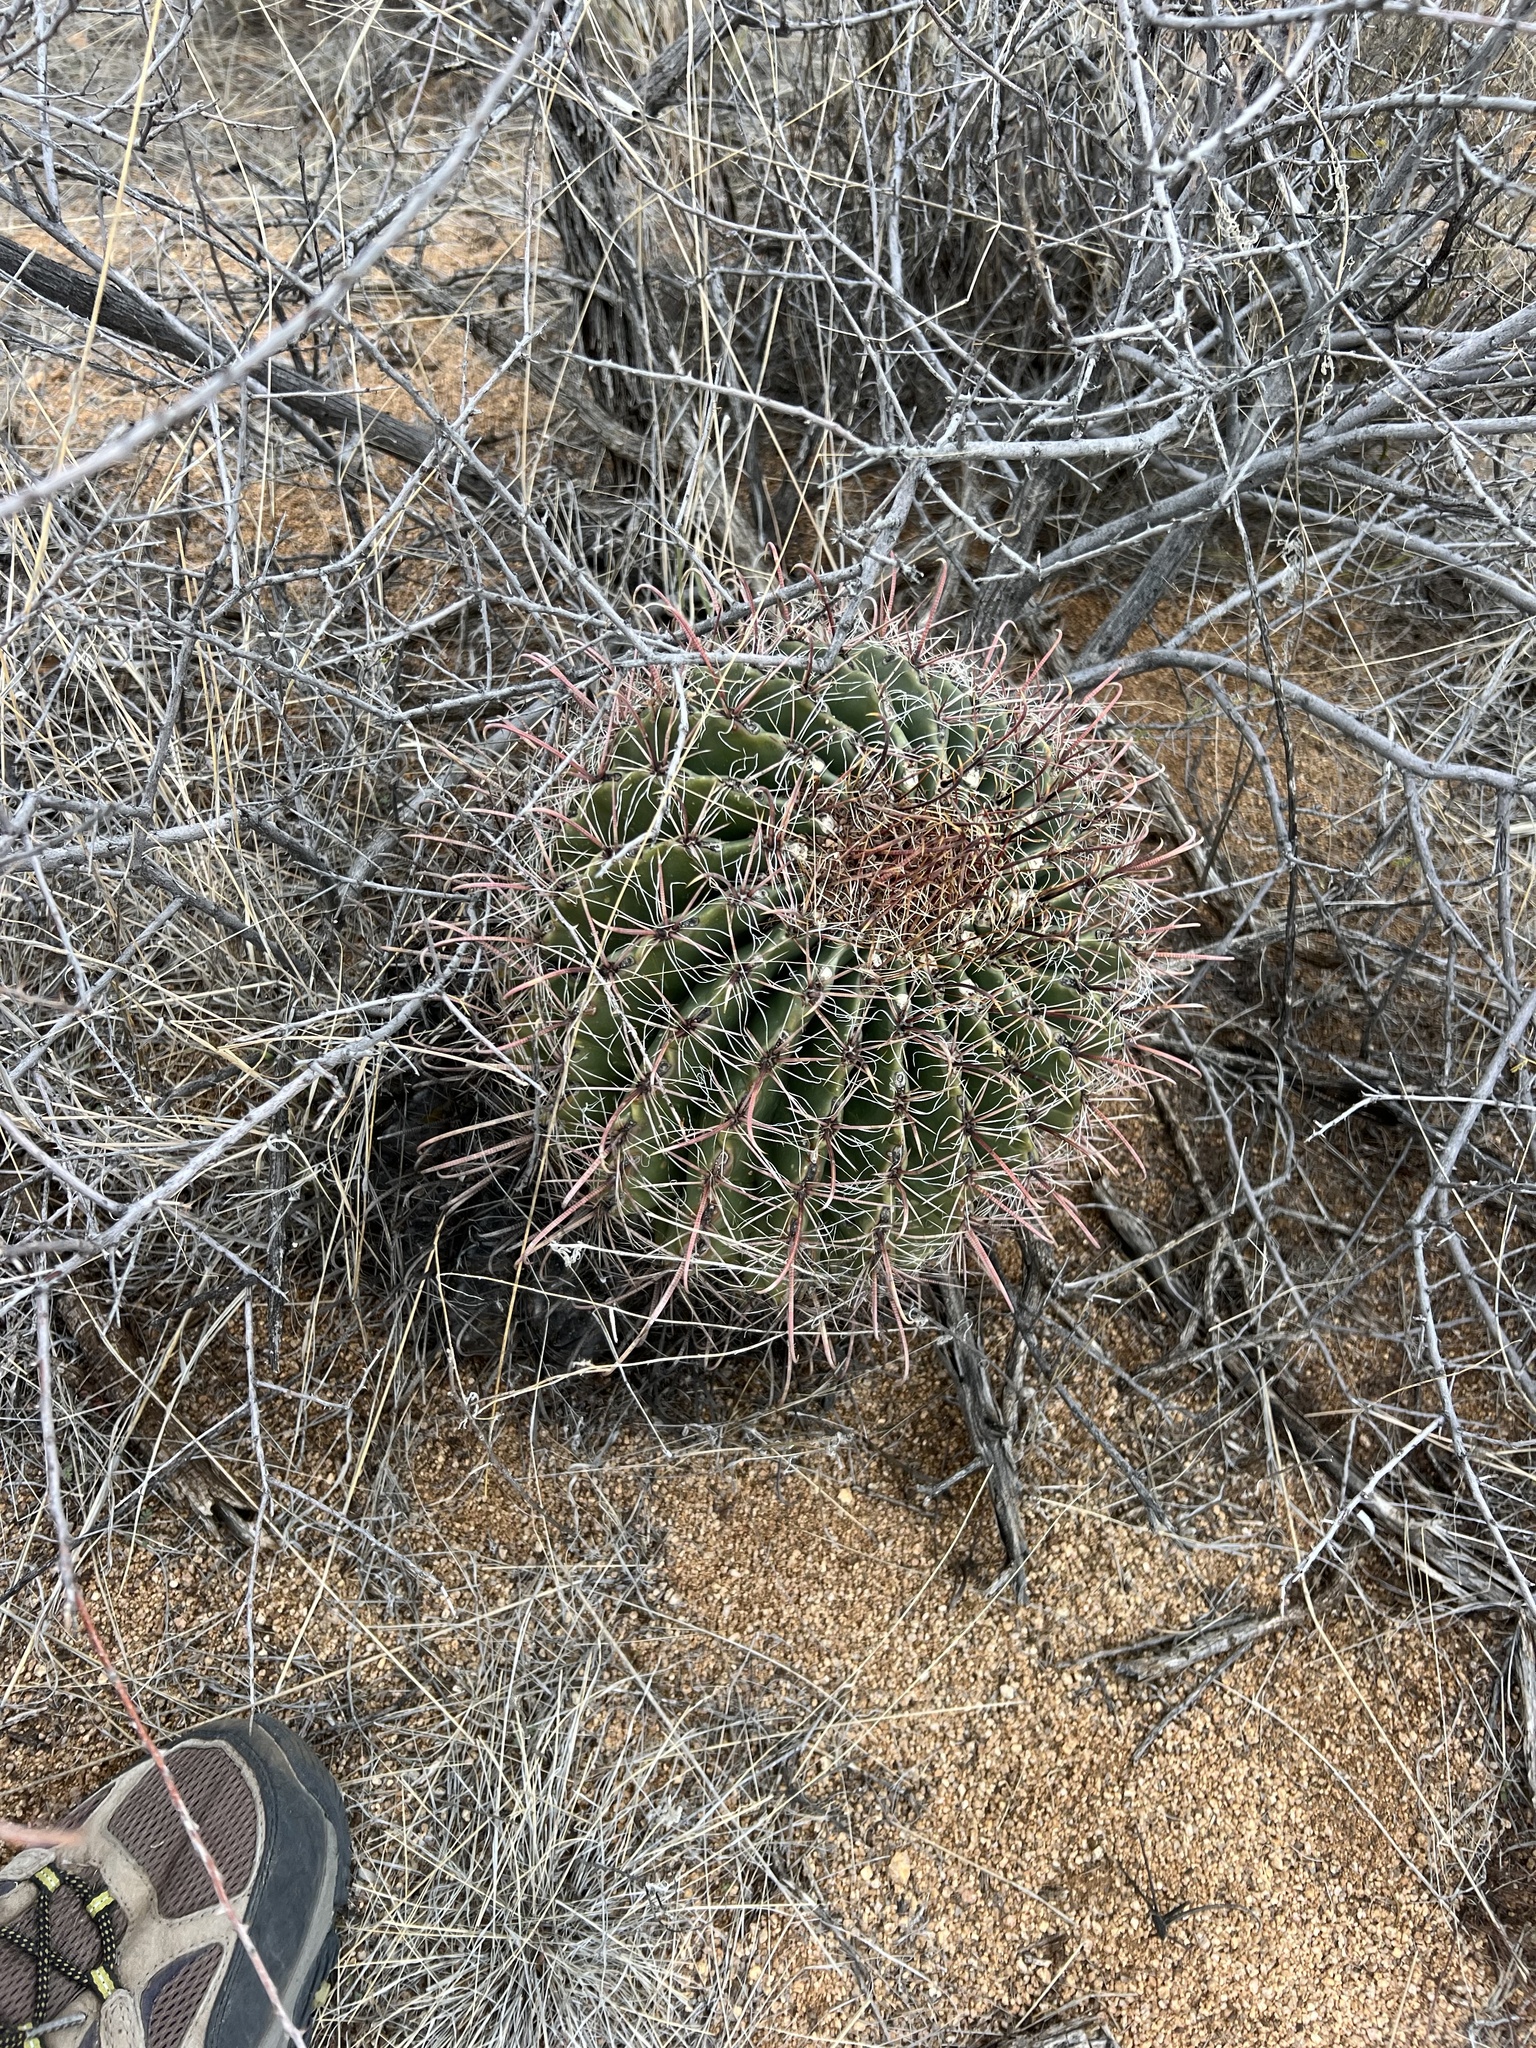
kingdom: Plantae
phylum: Tracheophyta
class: Magnoliopsida
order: Caryophyllales
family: Cactaceae
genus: Ferocactus
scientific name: Ferocactus wislizeni
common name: Candy barrel cactus
